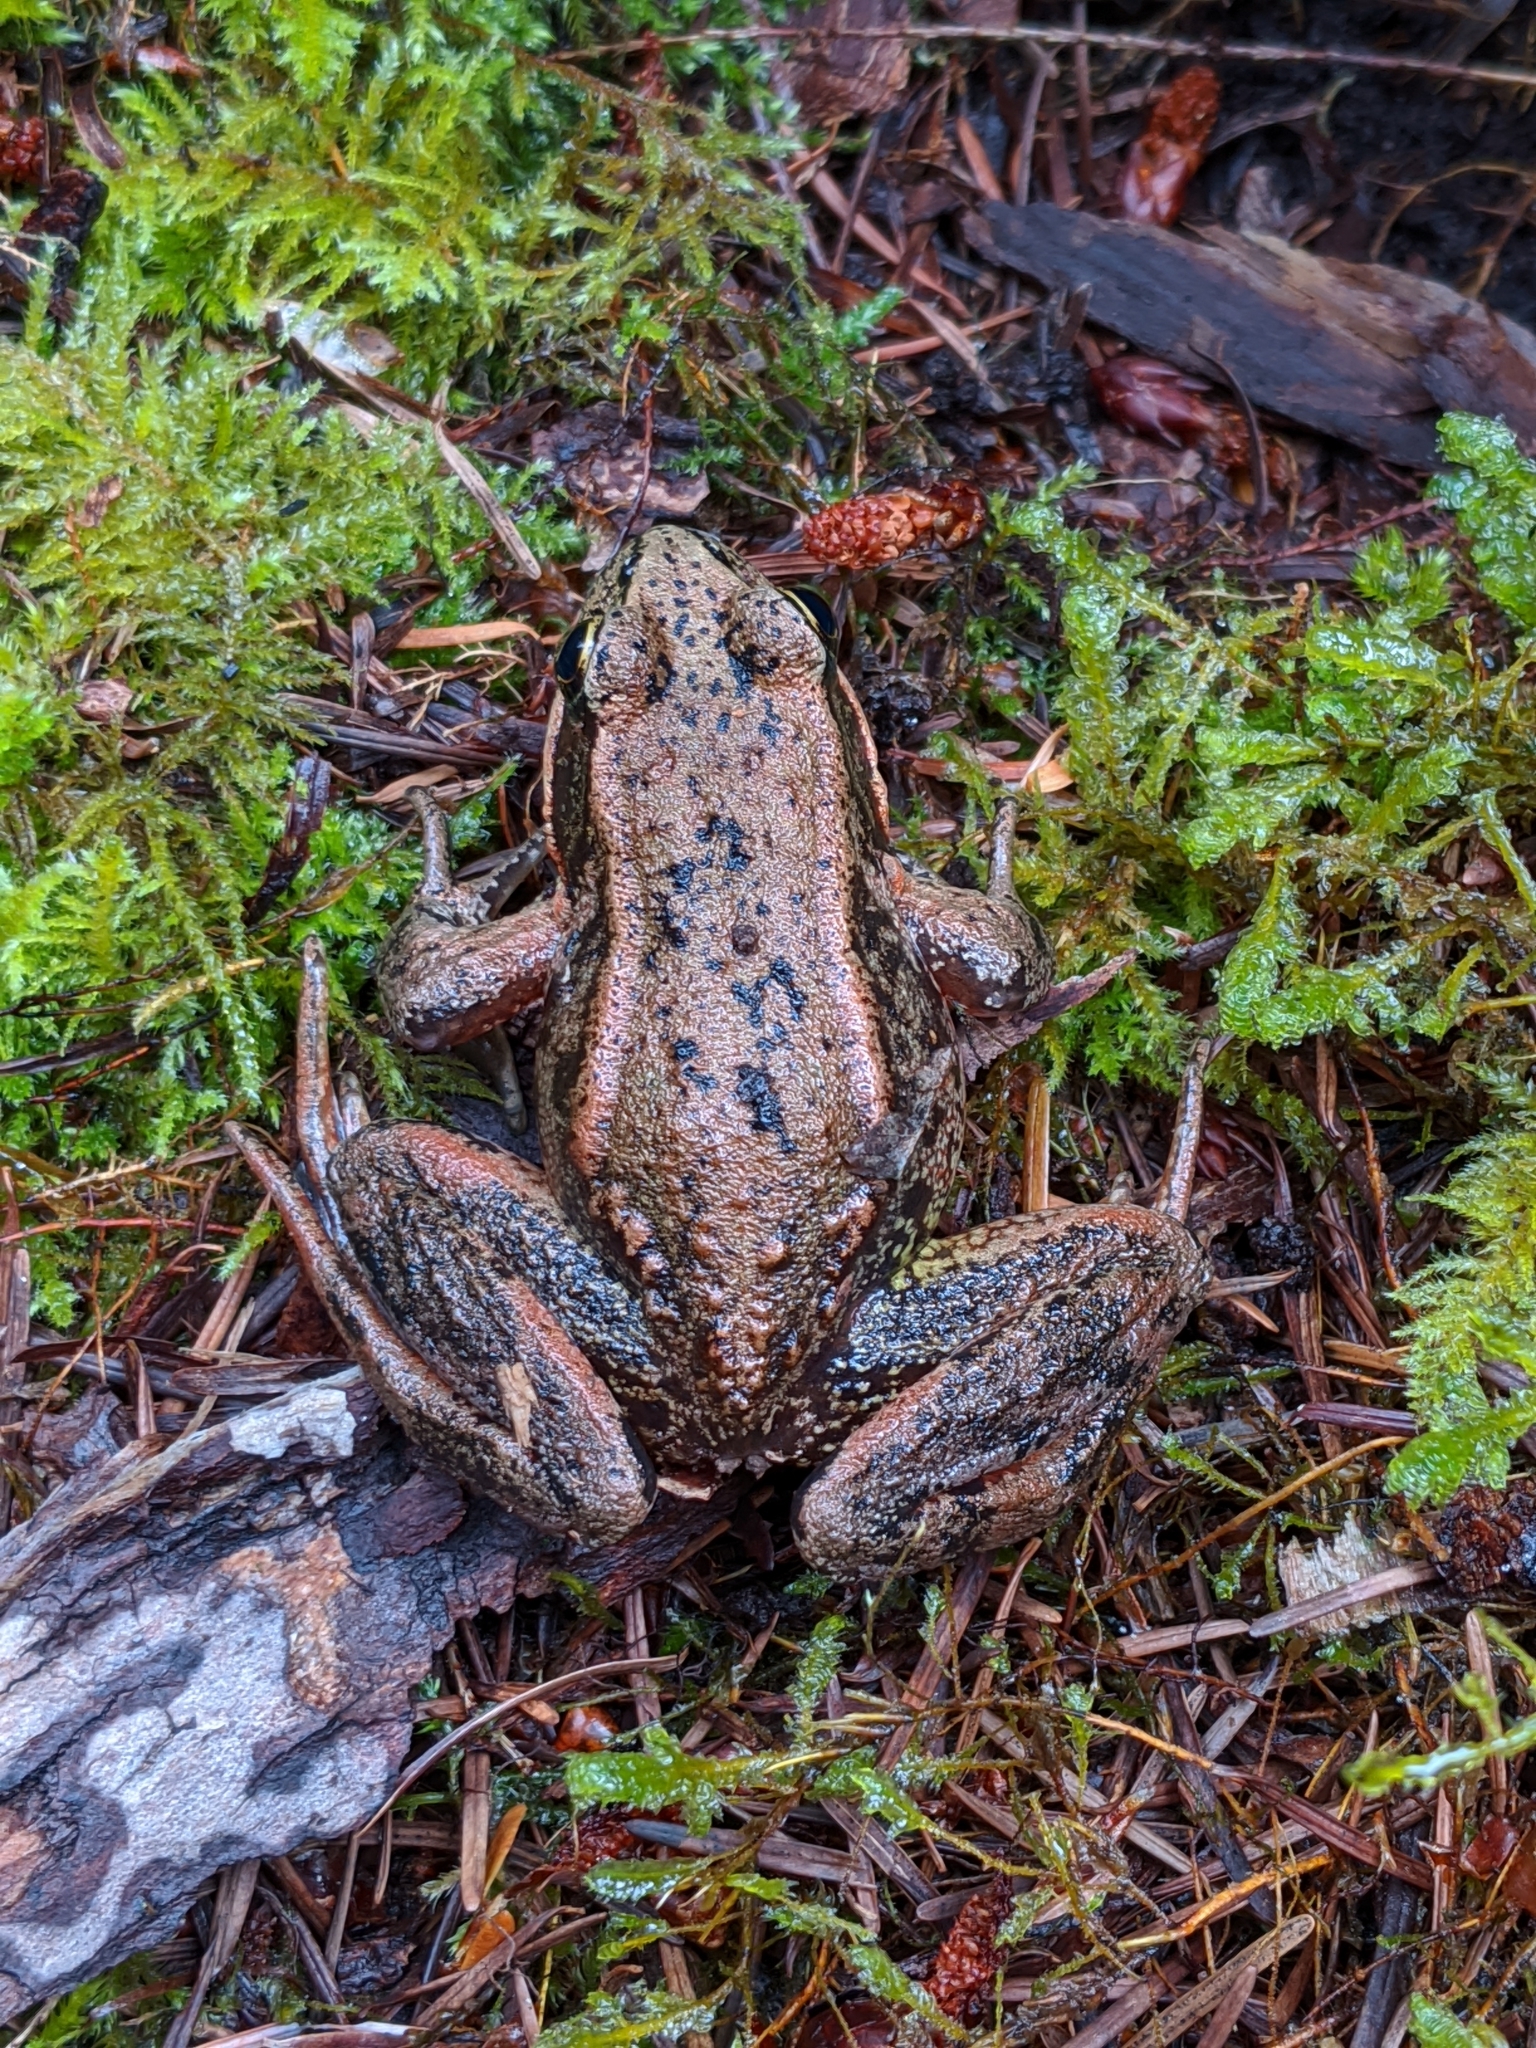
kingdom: Animalia
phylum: Chordata
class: Amphibia
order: Anura
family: Ranidae
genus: Rana
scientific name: Rana aurora
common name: Red-legged frog
